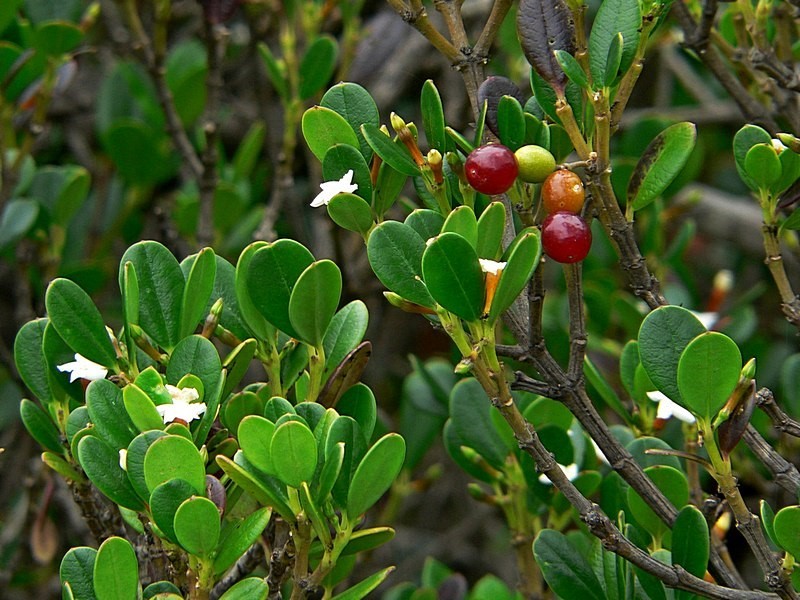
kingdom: Plantae
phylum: Tracheophyta
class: Magnoliopsida
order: Gentianales
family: Apocynaceae
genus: Alyxia
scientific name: Alyxia buxifolia
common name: Dysentery-bush
